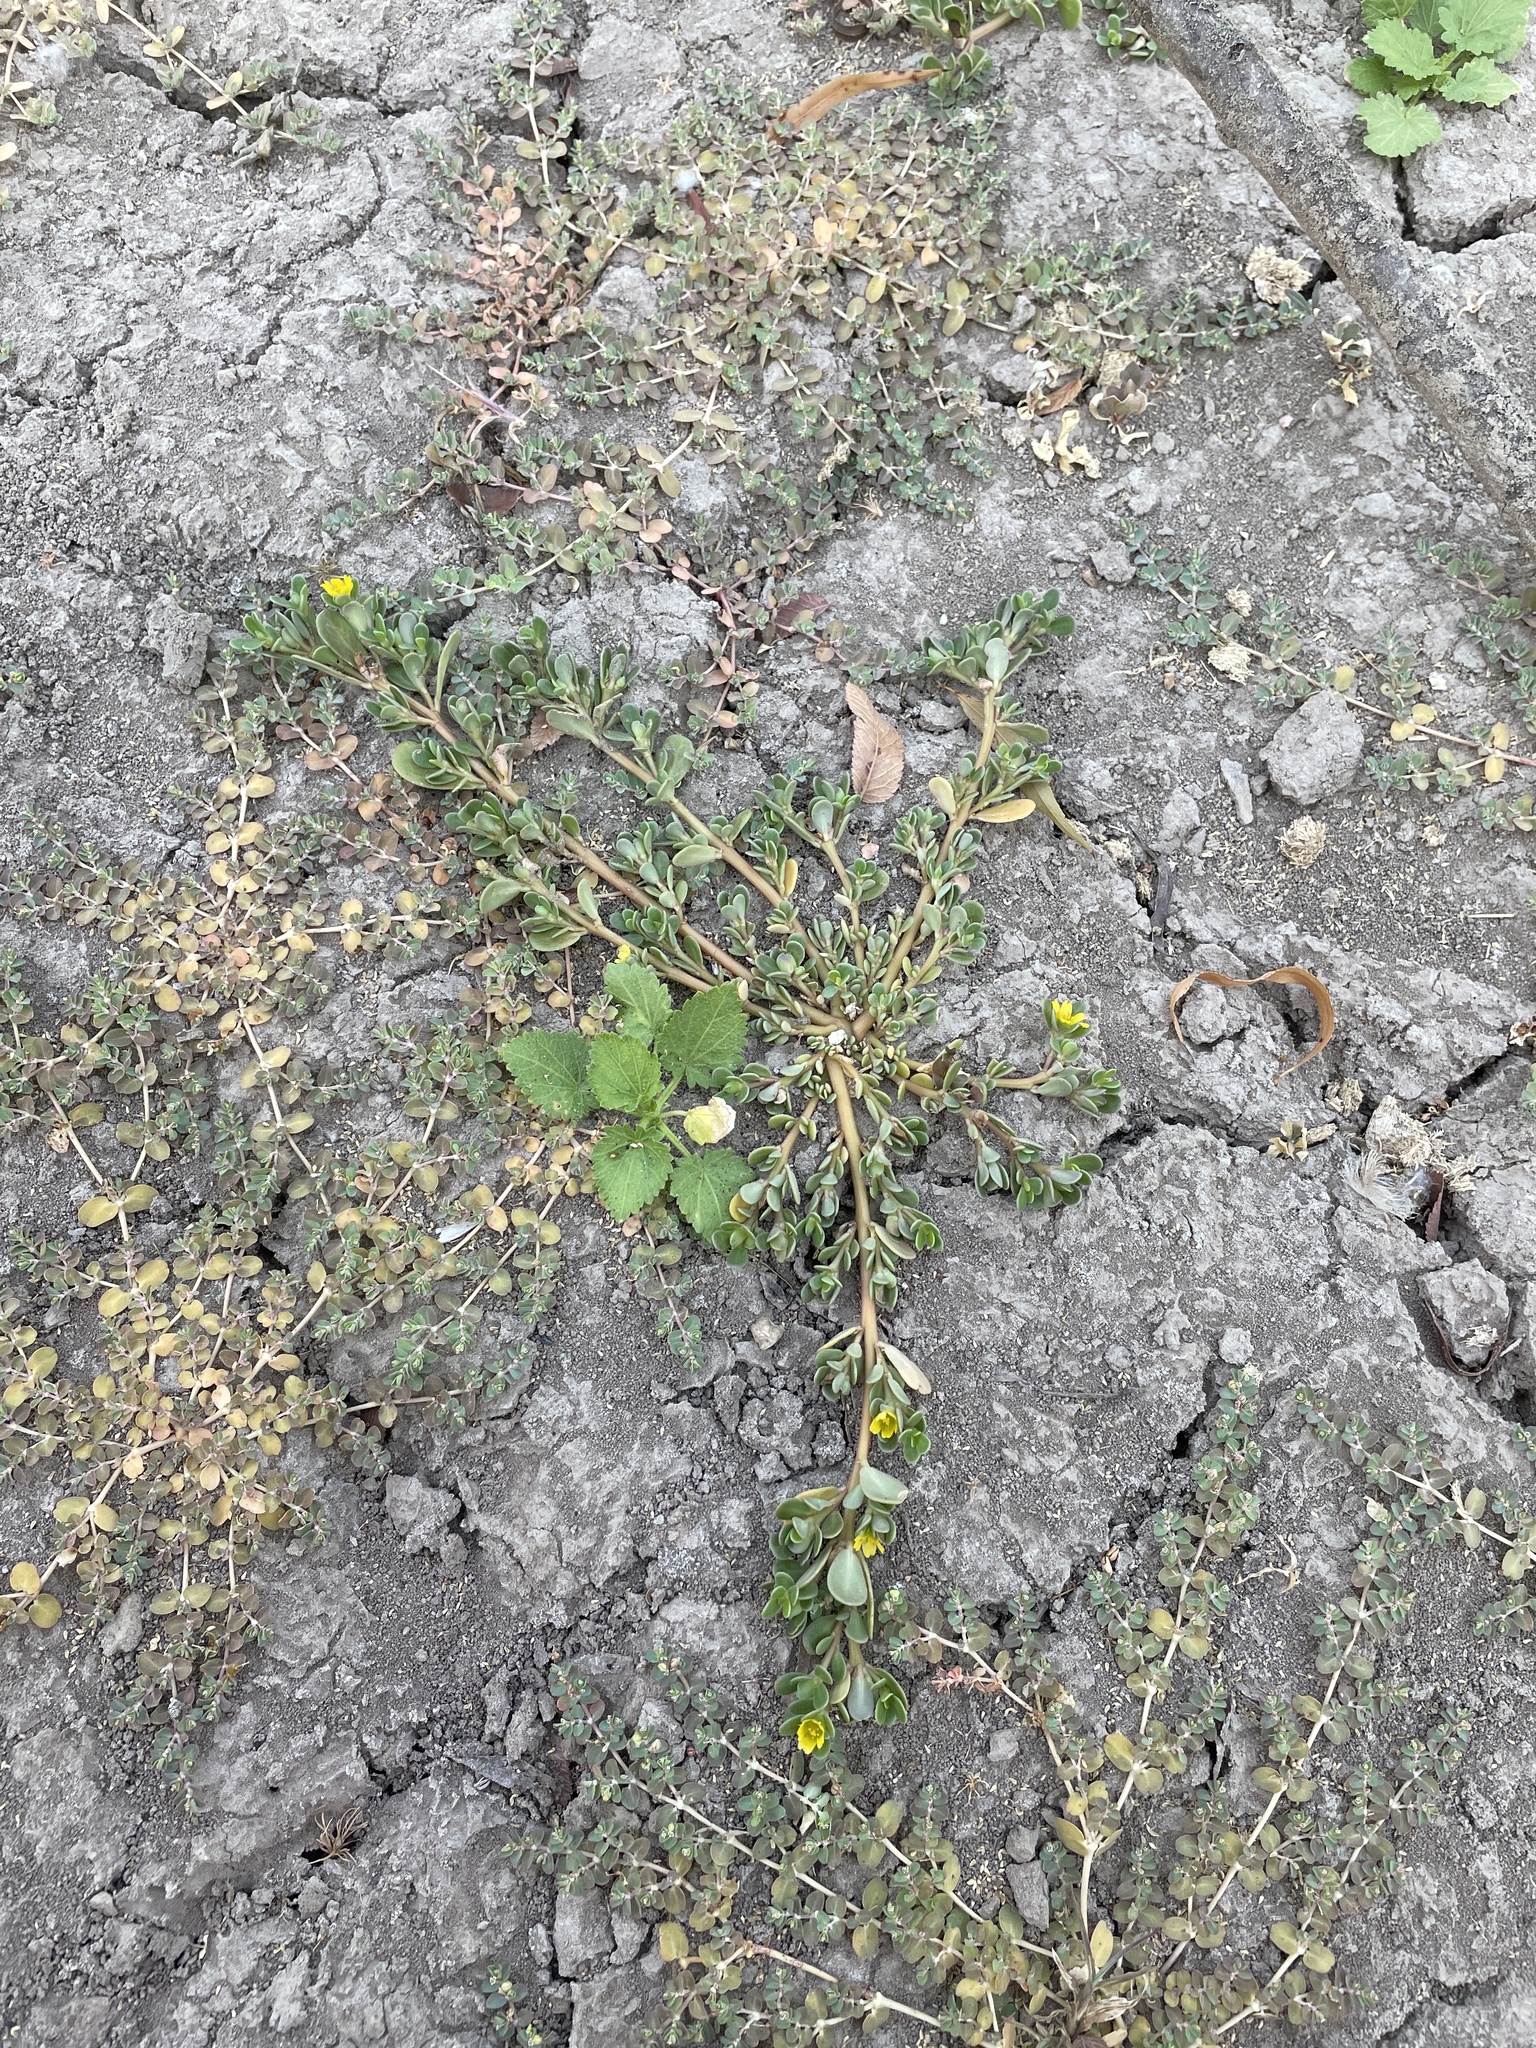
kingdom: Plantae
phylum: Tracheophyta
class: Magnoliopsida
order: Caryophyllales
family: Portulacaceae
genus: Portulaca
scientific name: Portulaca oleracea
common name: Common purslane
